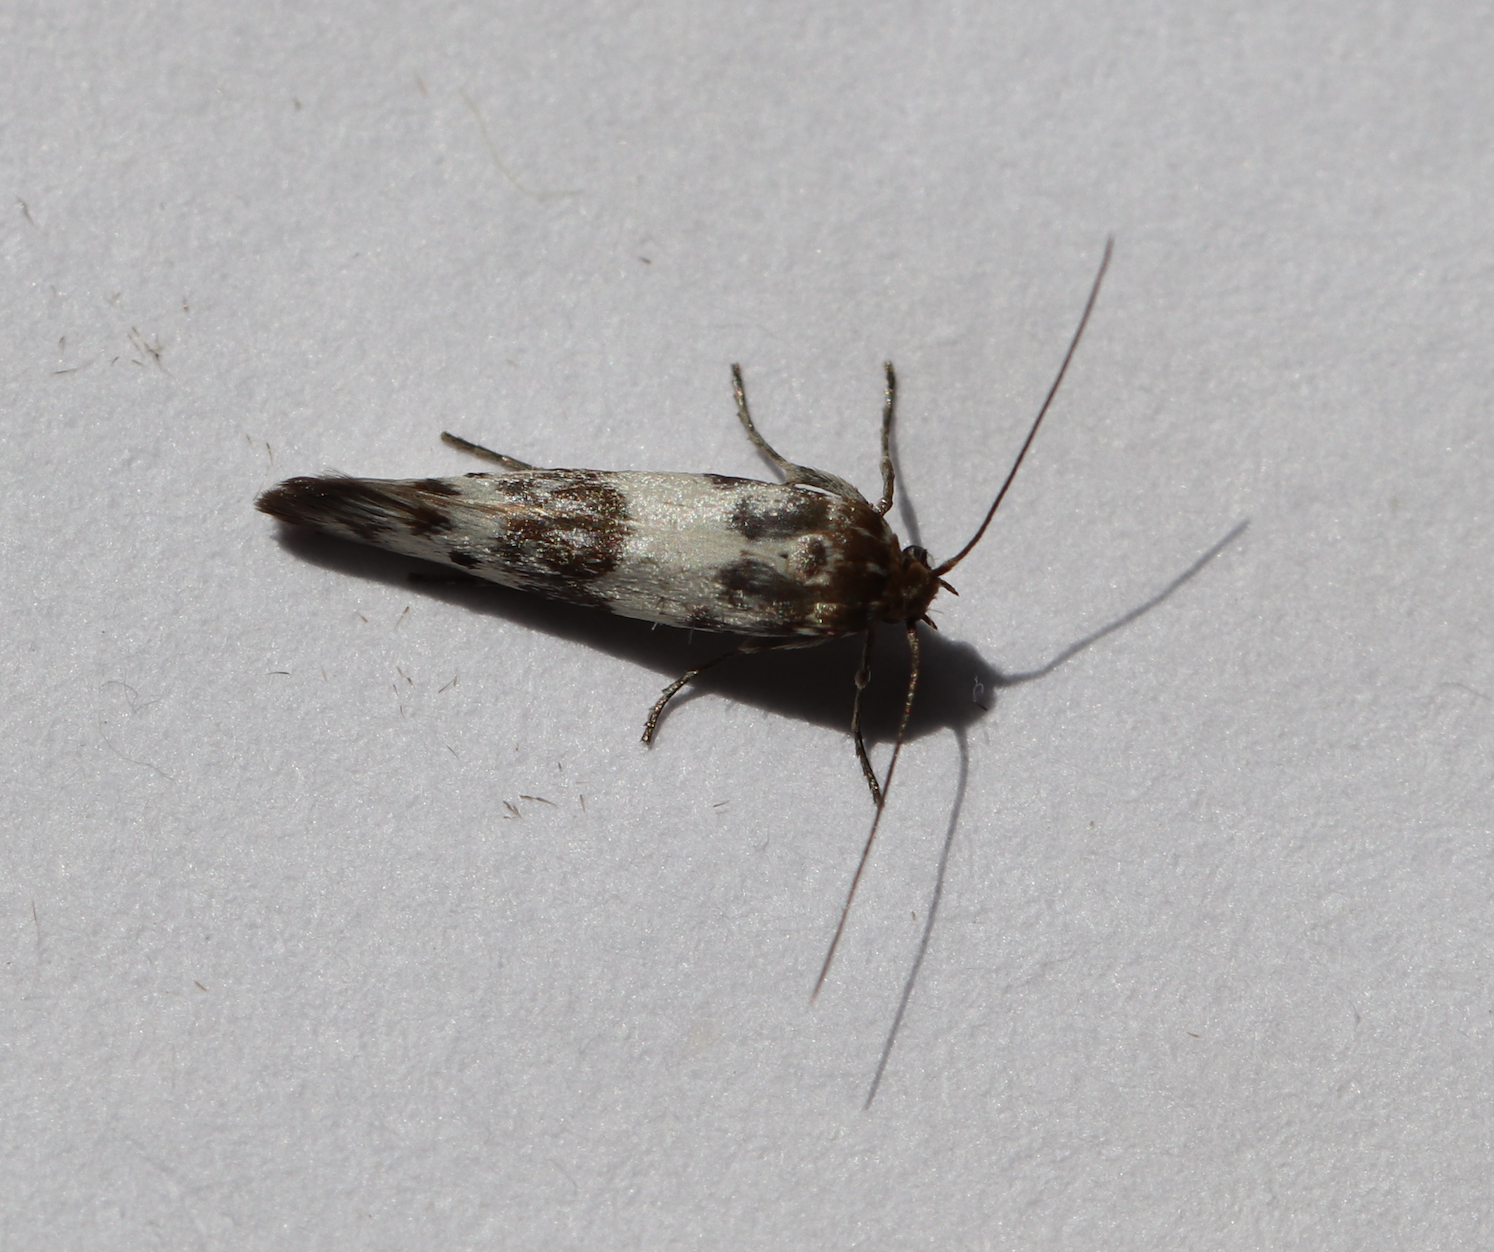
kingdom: Animalia
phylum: Arthropoda
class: Insecta
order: Lepidoptera
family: Scythrididae
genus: Enolmis
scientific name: Enolmis acanthella
